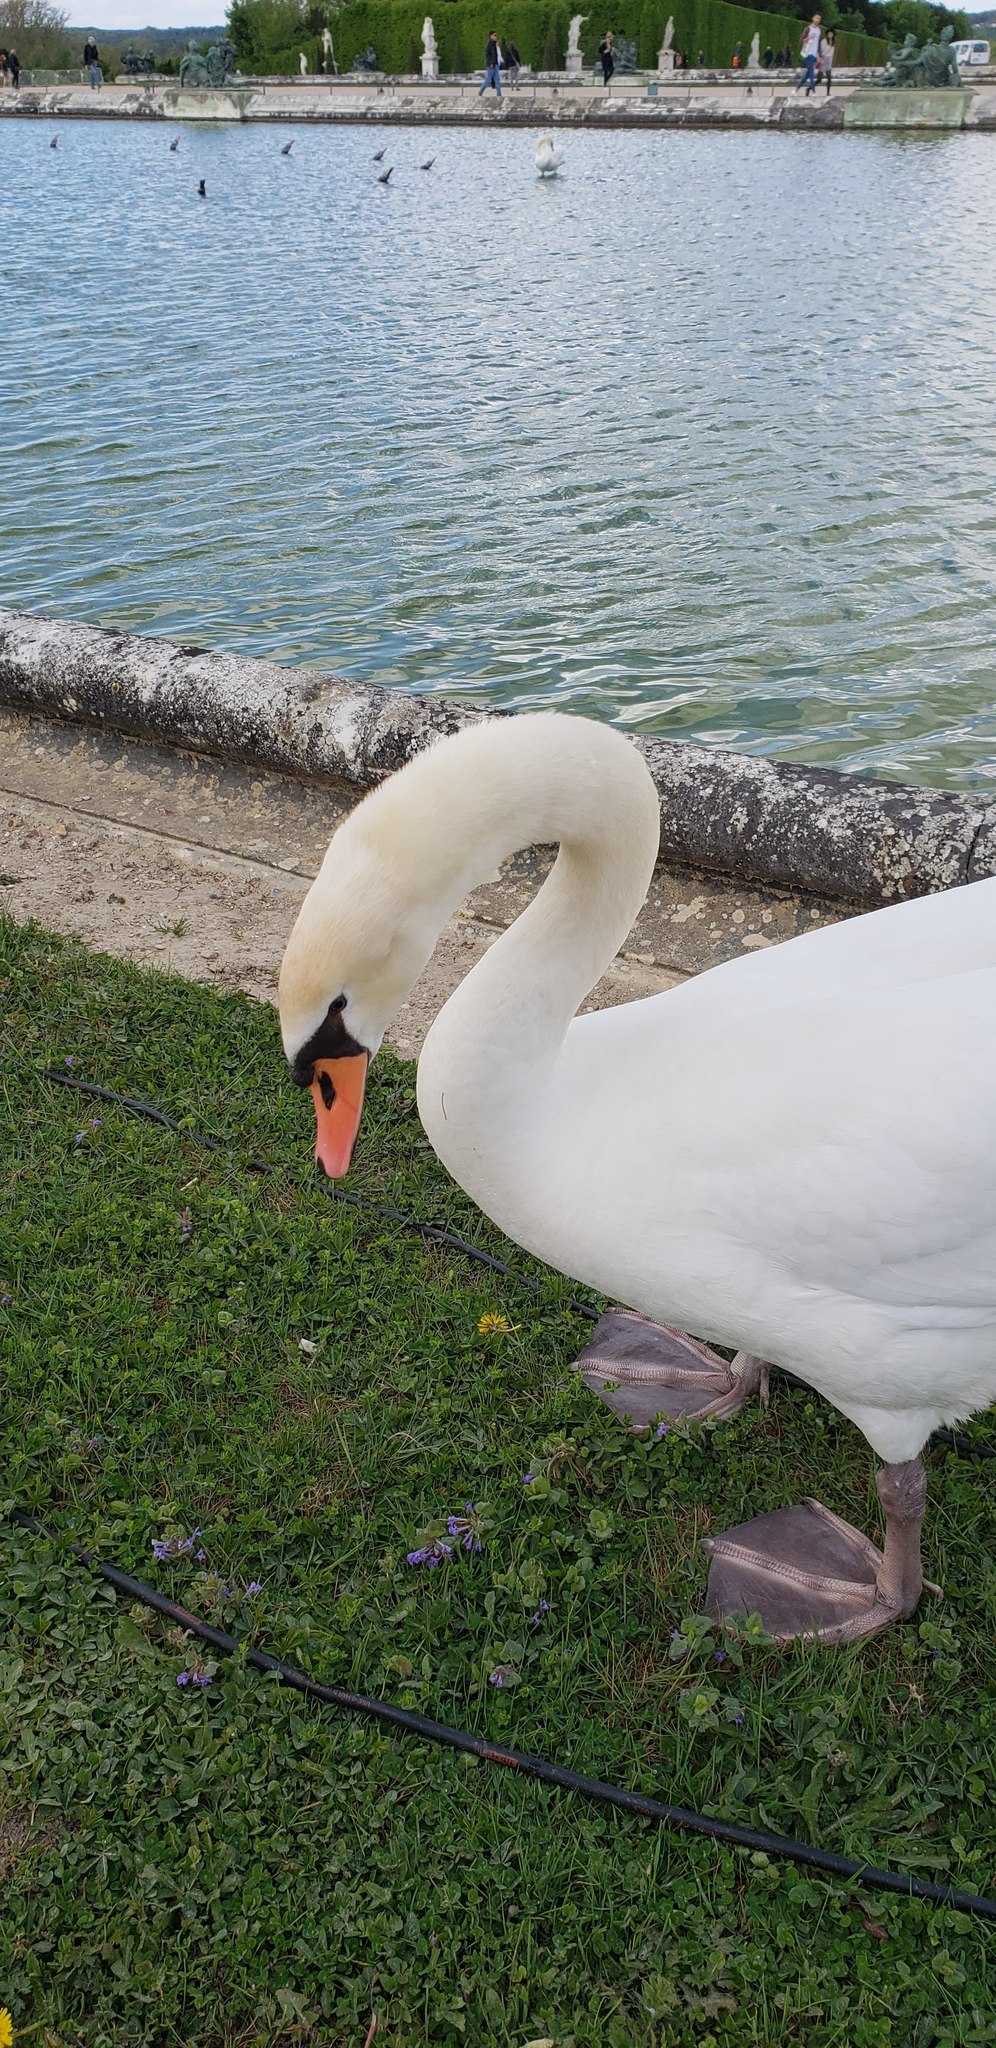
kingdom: Animalia
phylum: Chordata
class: Aves
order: Anseriformes
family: Anatidae
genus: Cygnus
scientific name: Cygnus olor
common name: Mute swan
